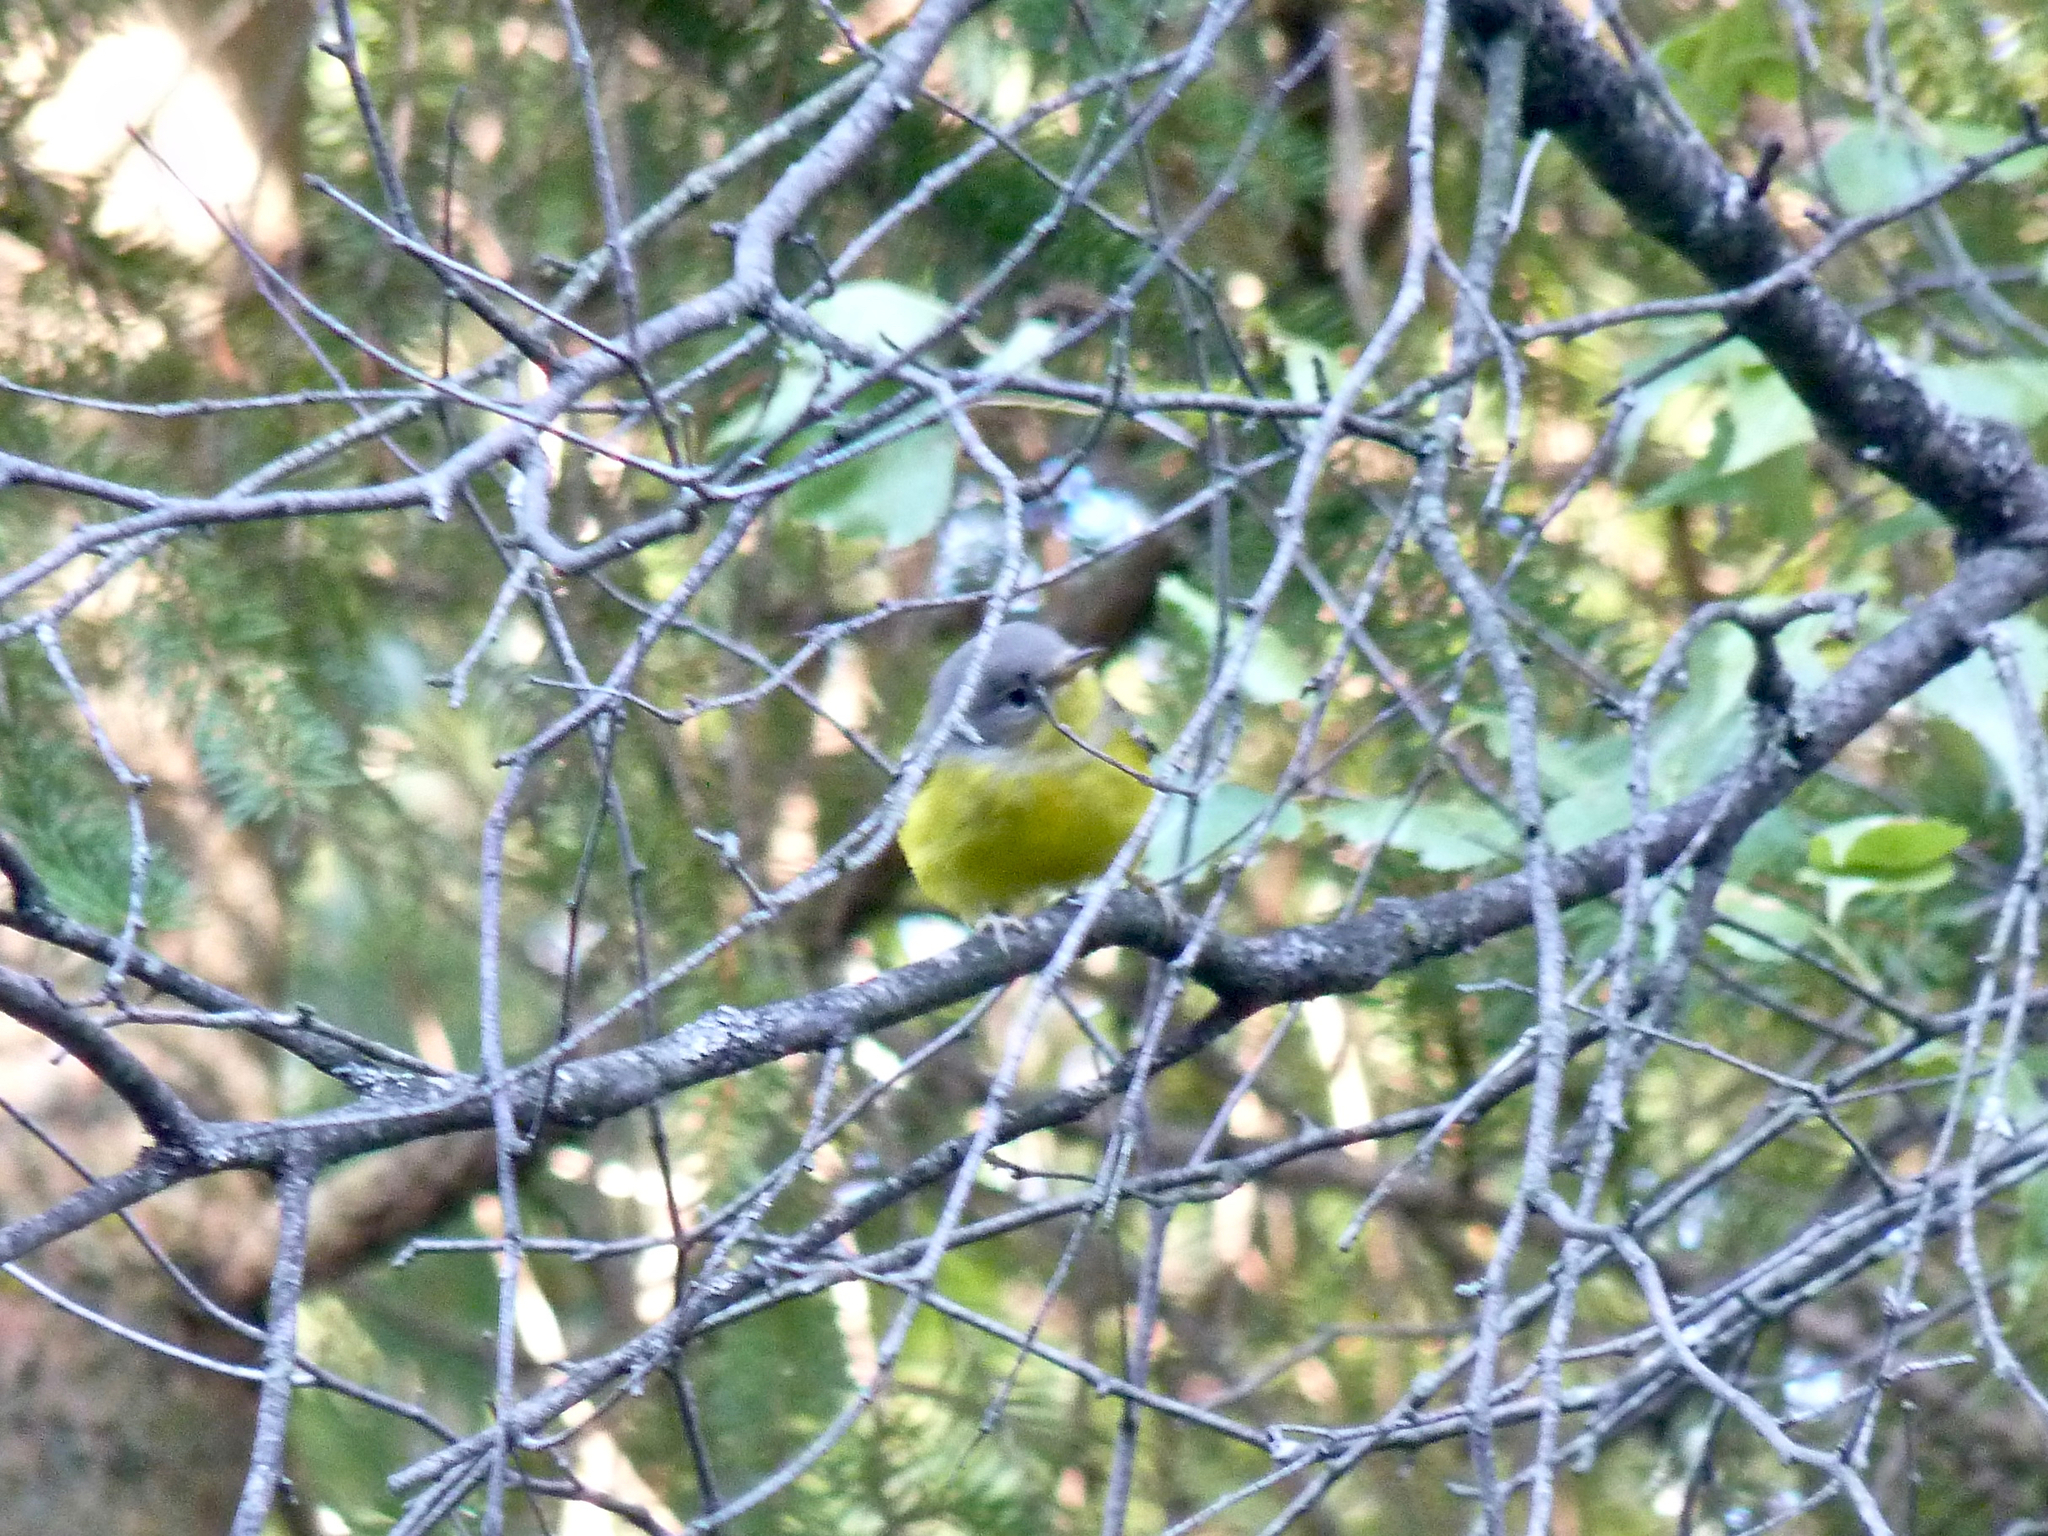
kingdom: Animalia
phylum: Chordata
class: Aves
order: Passeriformes
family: Parulidae
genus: Setophaga
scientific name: Setophaga magnolia
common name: Magnolia warbler
